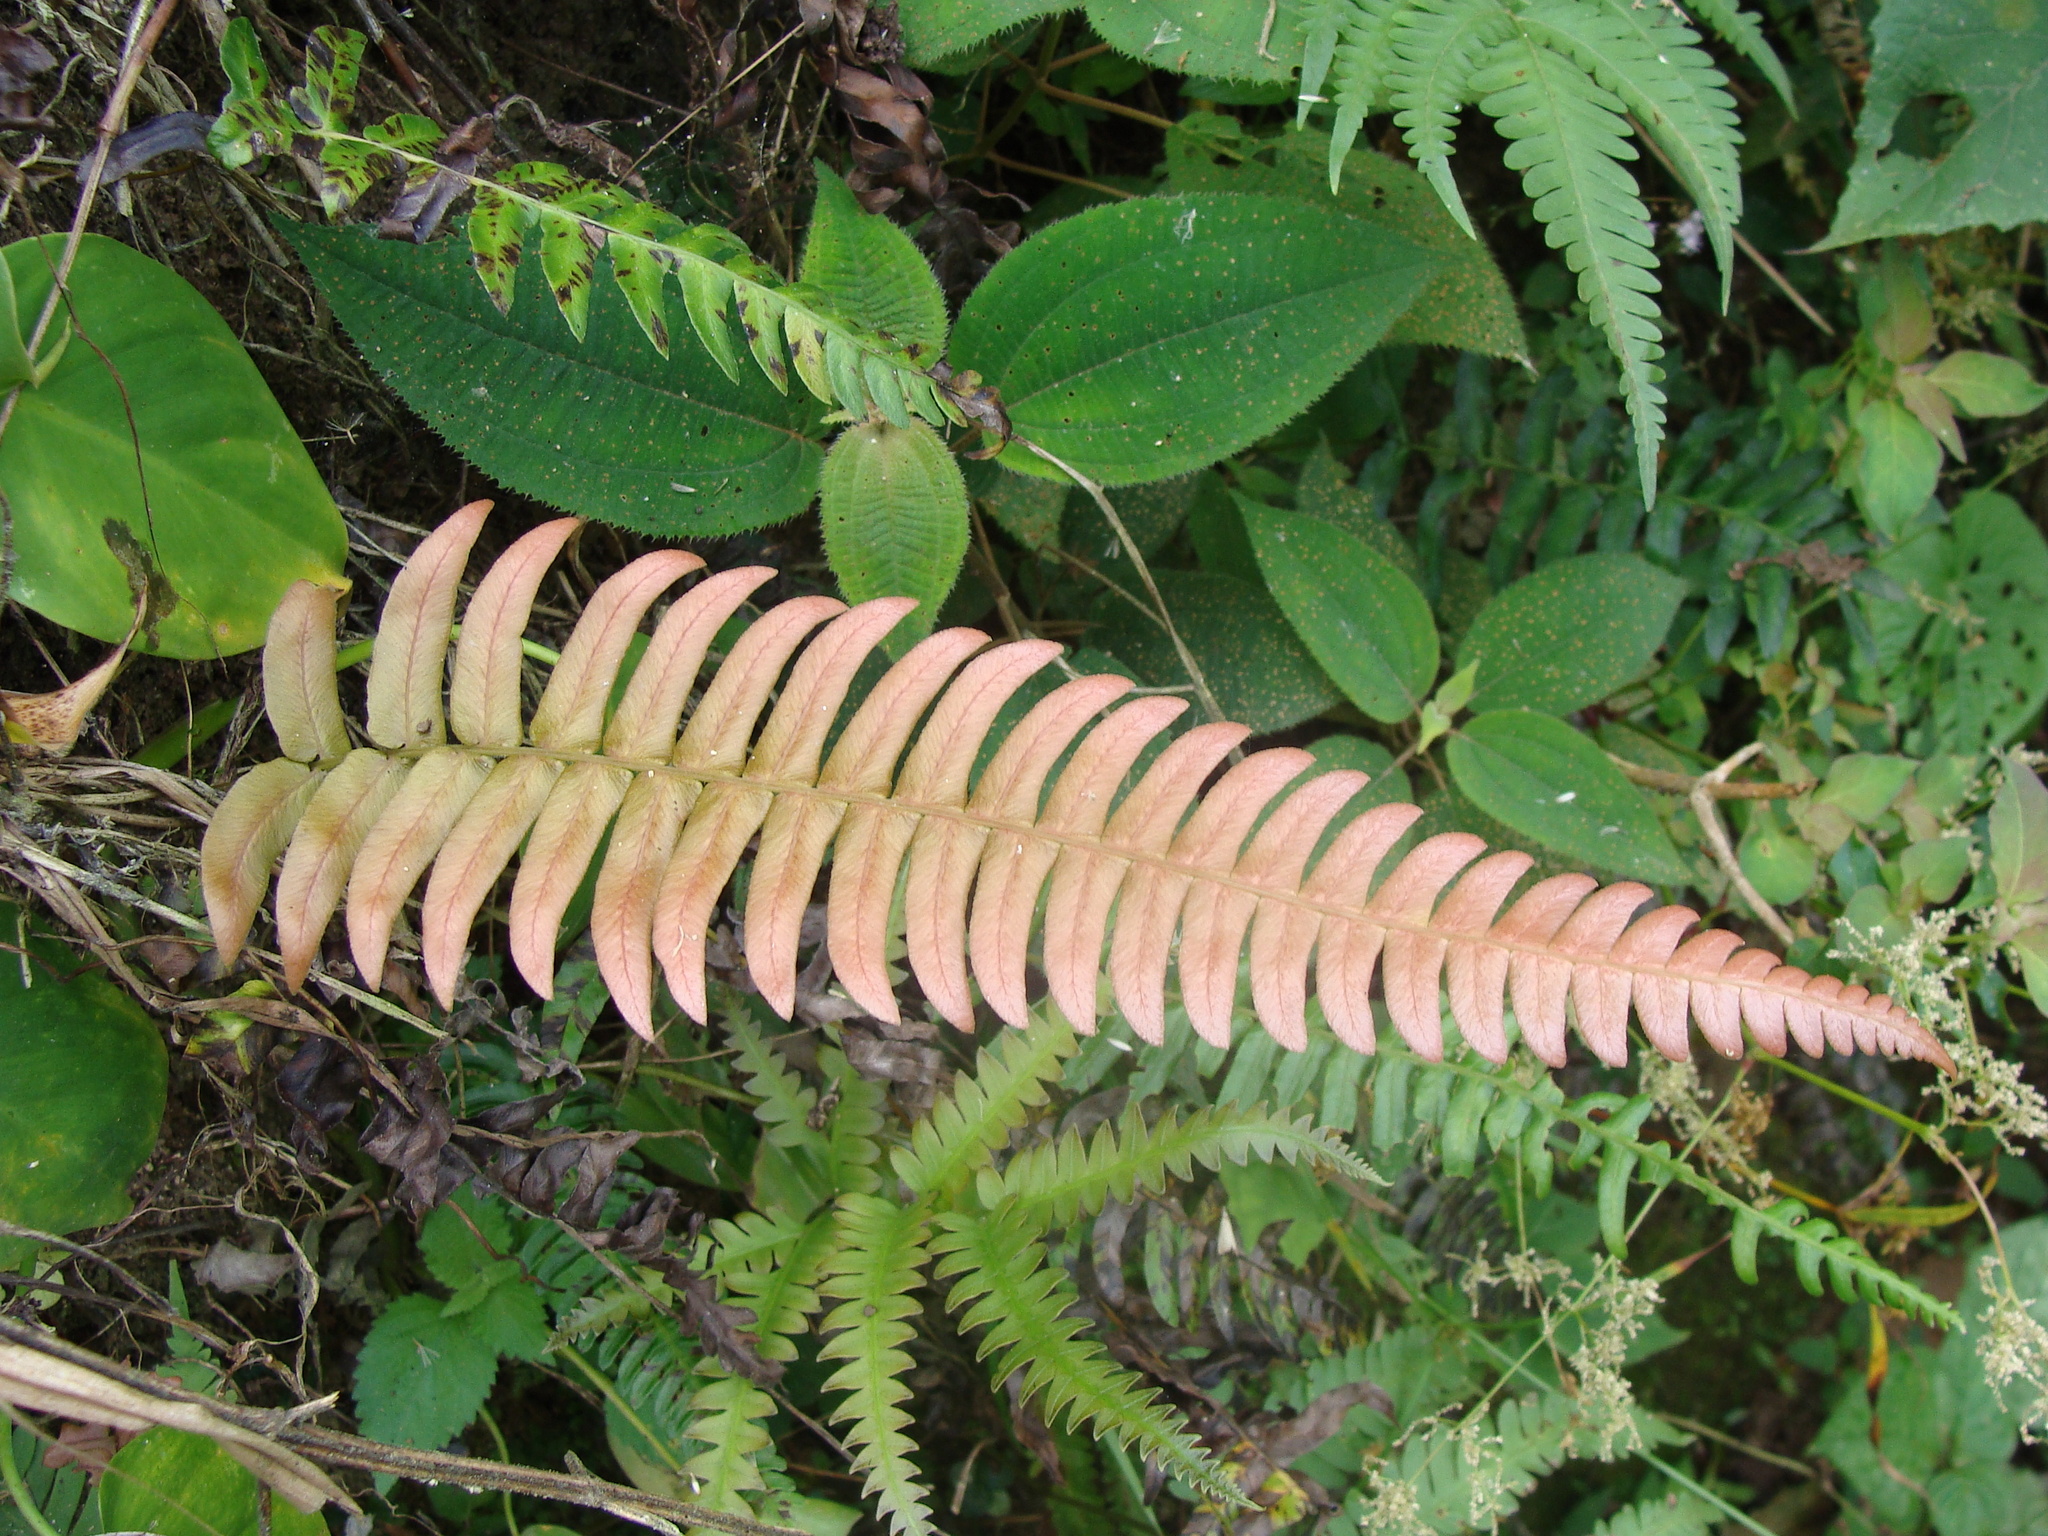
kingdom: Plantae
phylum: Tracheophyta
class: Polypodiopsida
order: Polypodiales
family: Blechnaceae
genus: Blechnum
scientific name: Blechnum occidentale
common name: Hammock fern
